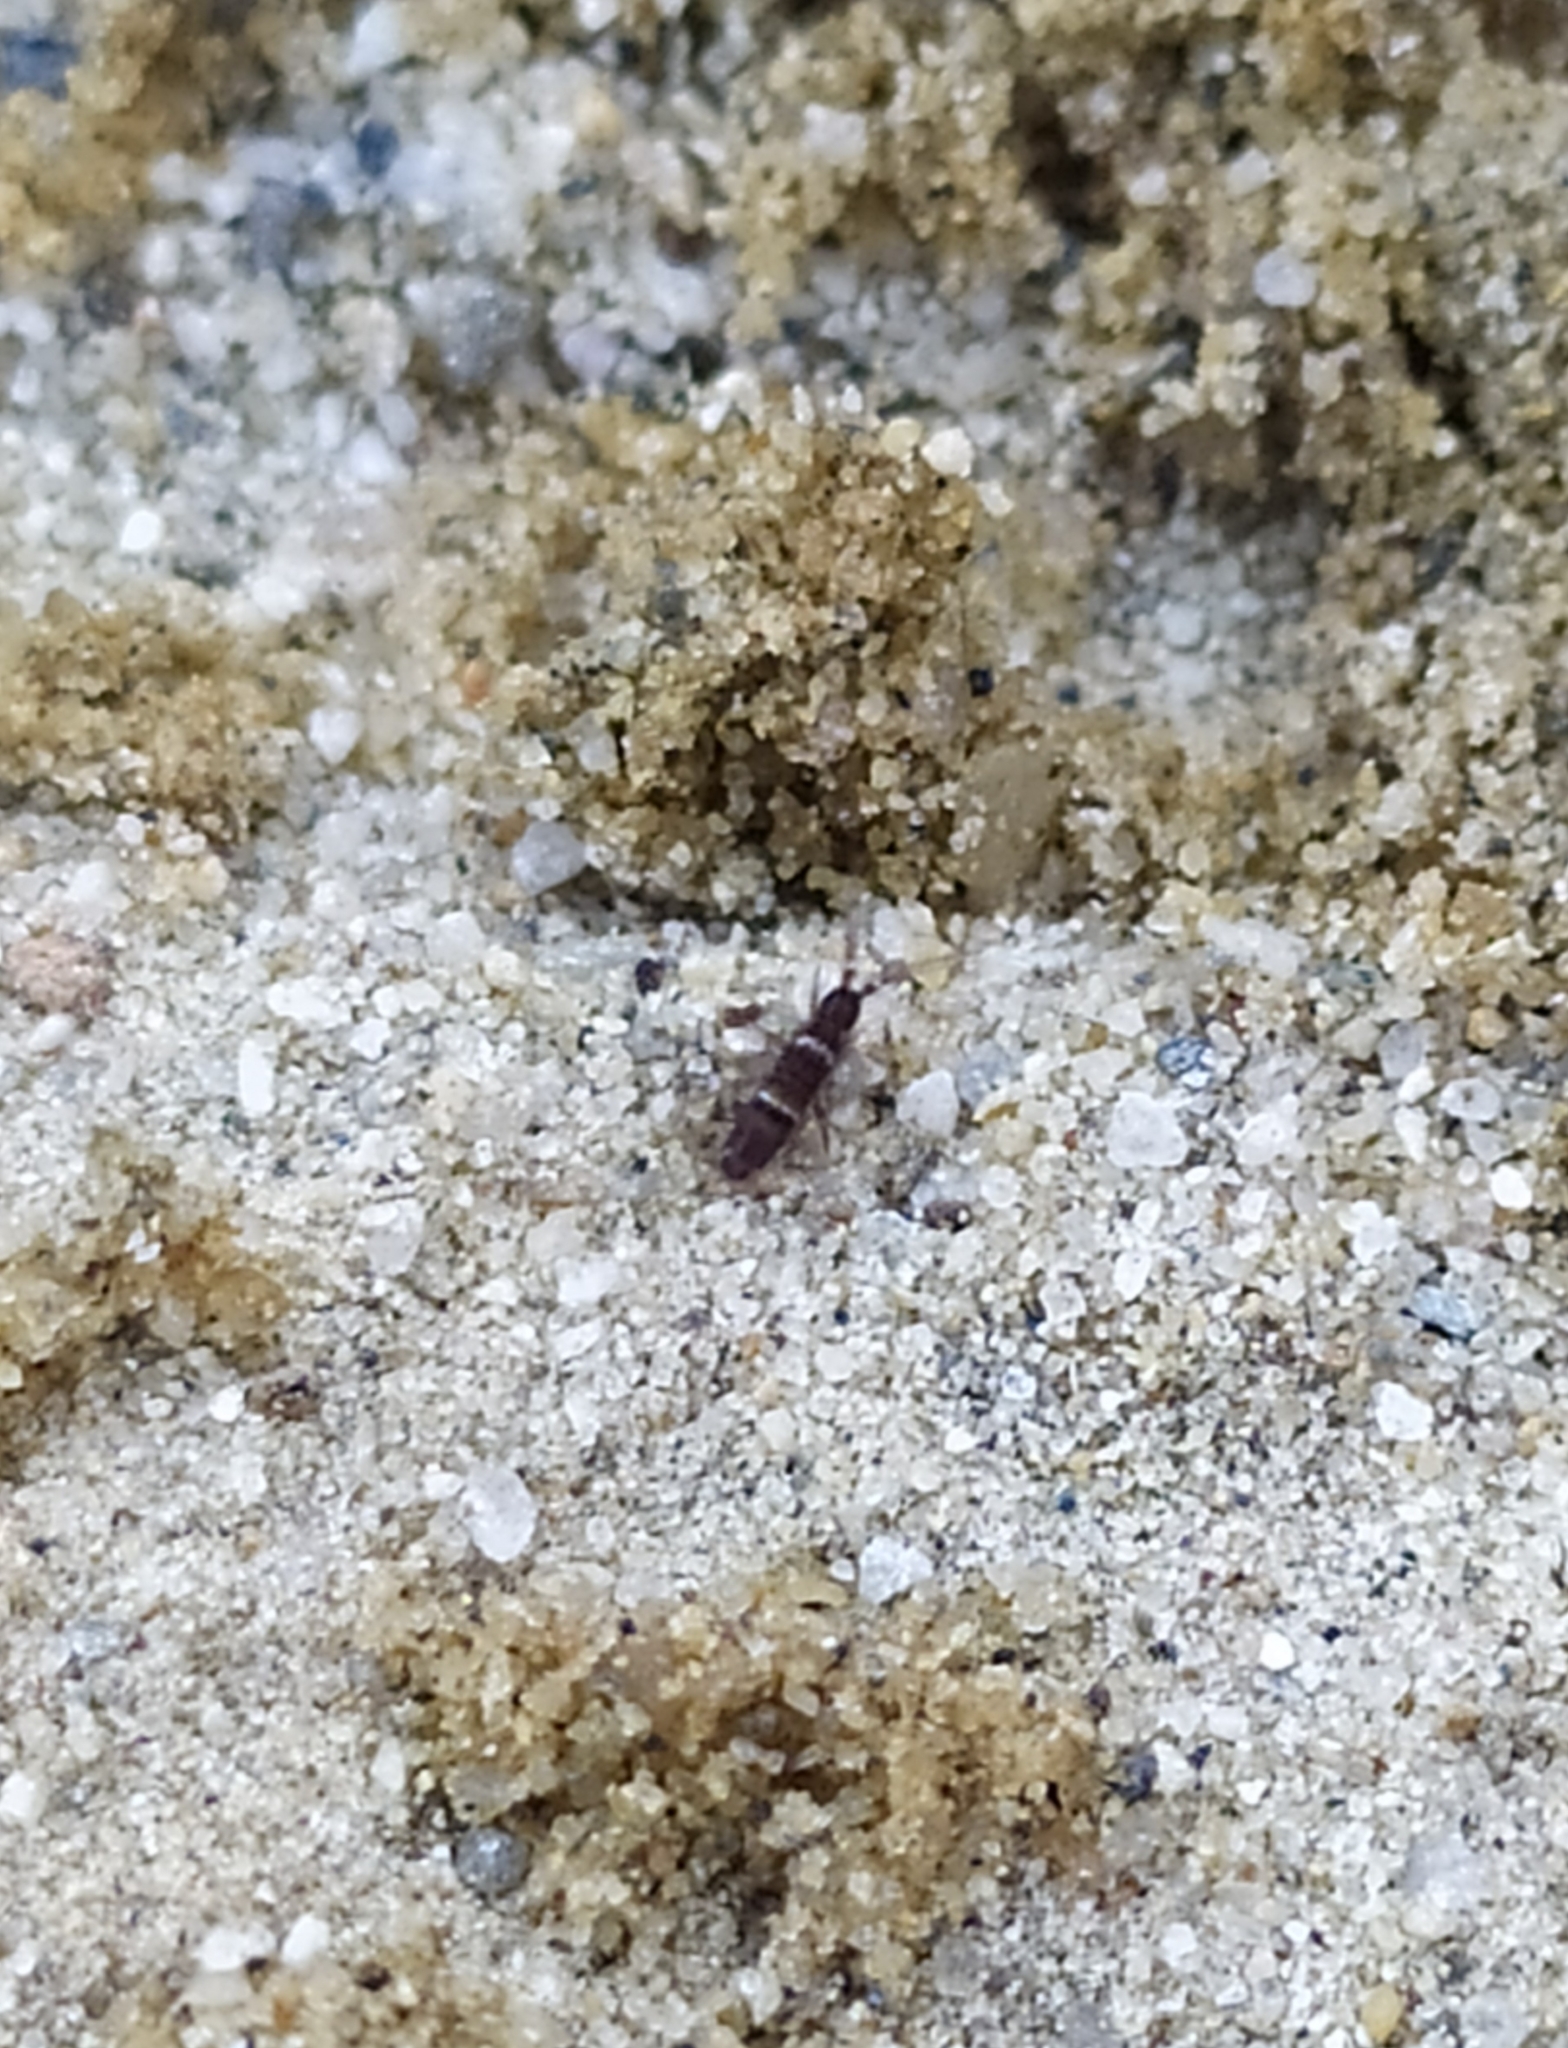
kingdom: Animalia
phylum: Arthropoda
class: Collembola
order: Entomobryomorpha
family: Orchesellidae
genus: Orchesella
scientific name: Orchesella cincta
